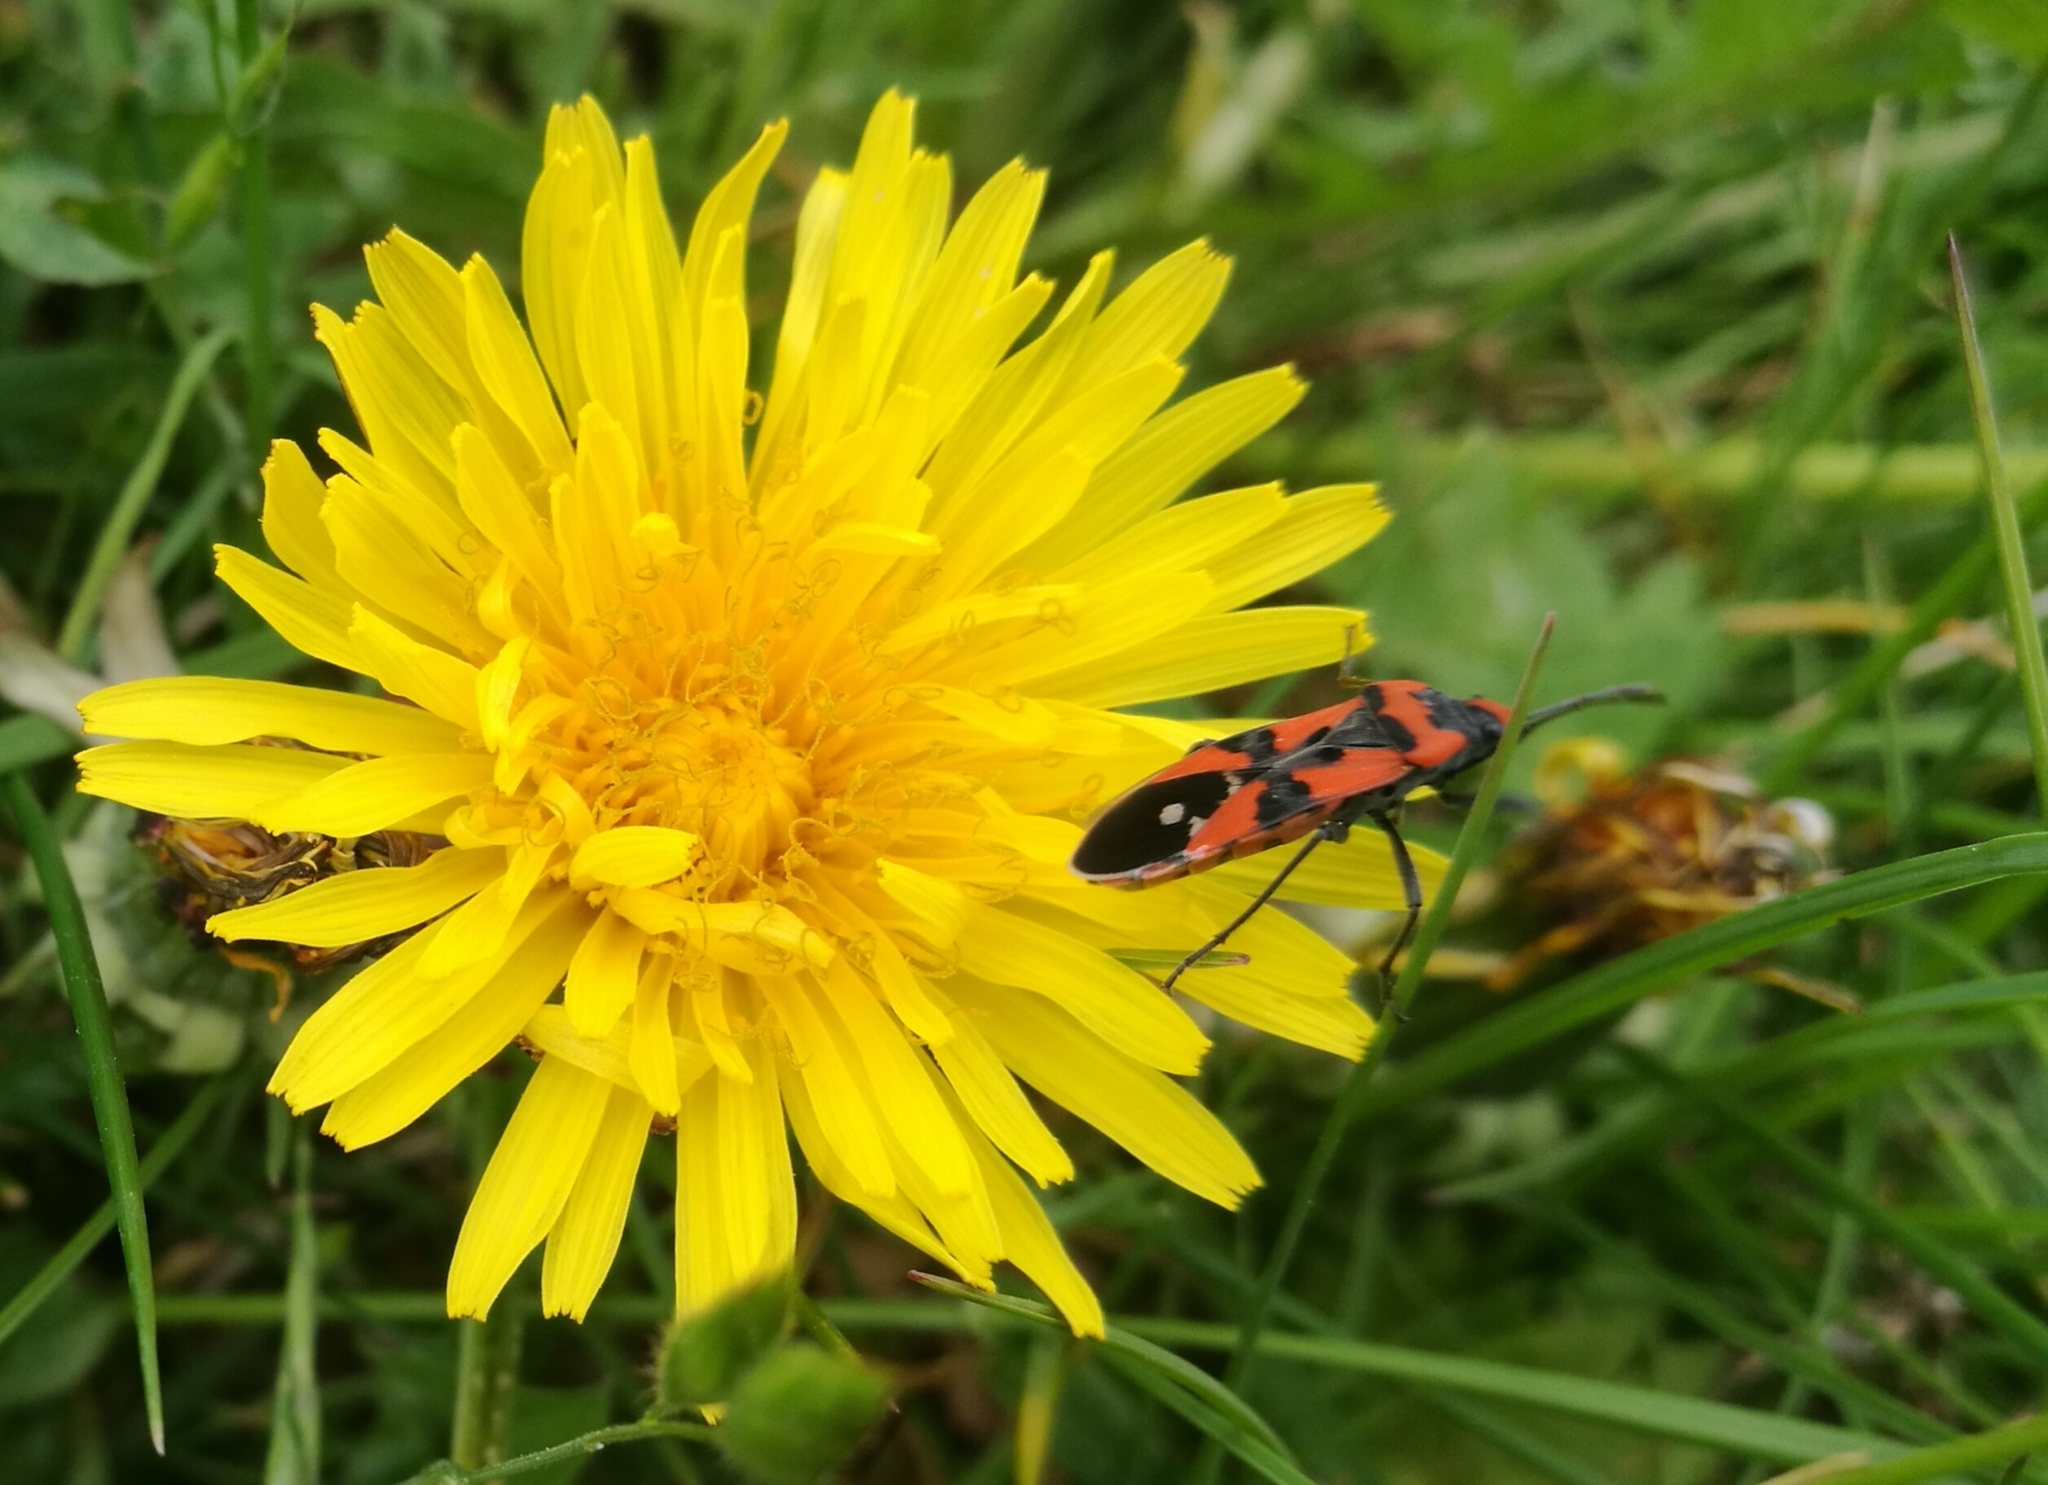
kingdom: Animalia
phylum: Arthropoda
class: Insecta
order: Hemiptera
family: Lygaeidae
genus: Lygaeus
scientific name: Lygaeus equestris
